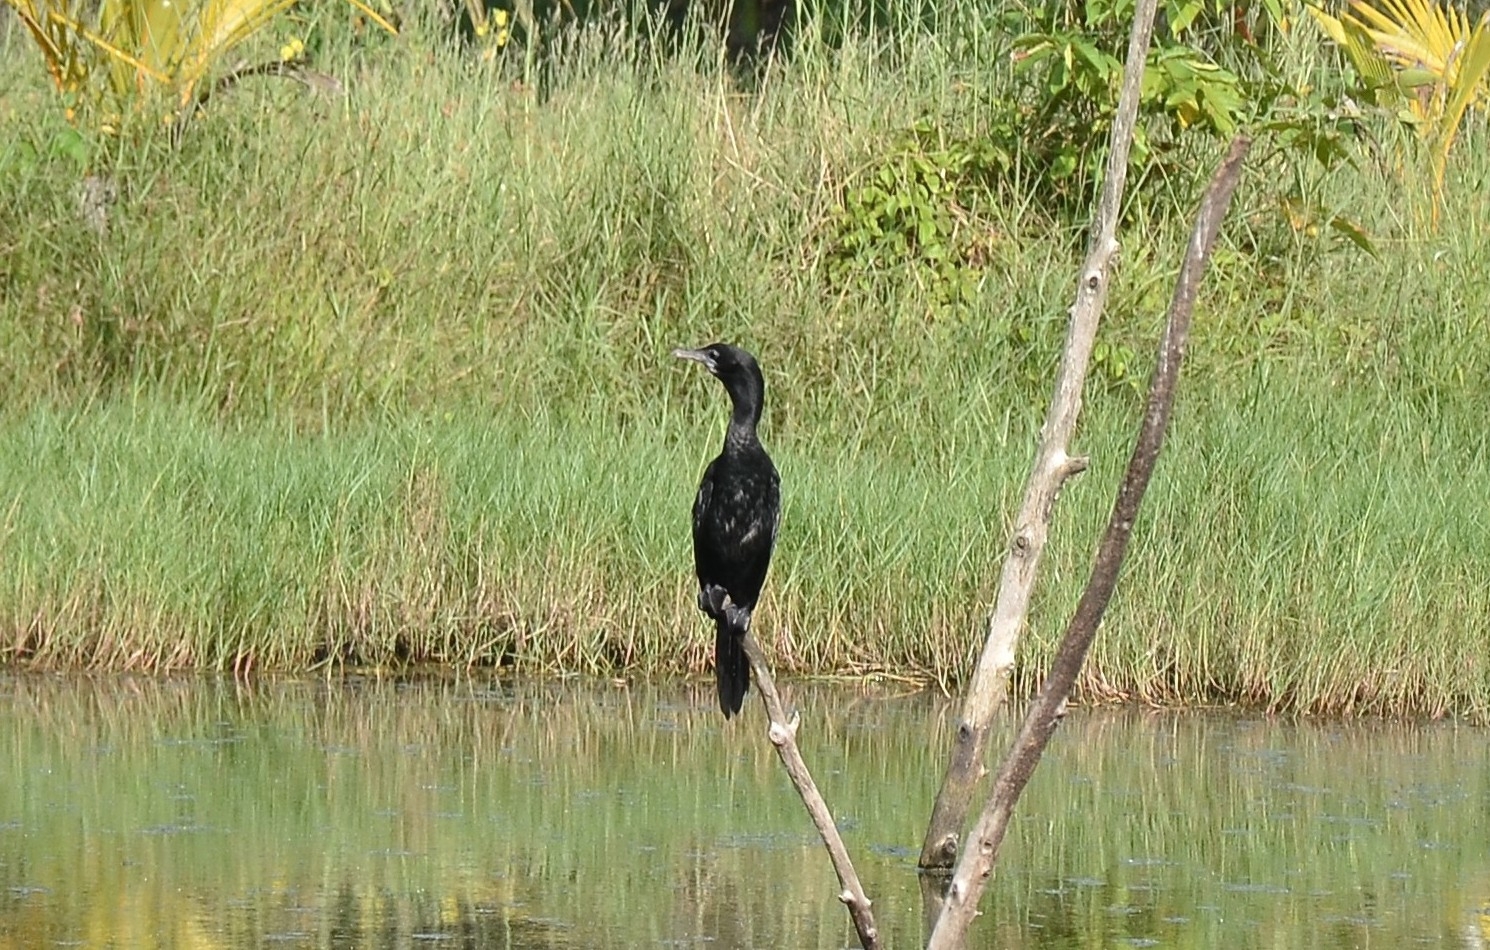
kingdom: Animalia
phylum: Chordata
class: Aves
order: Suliformes
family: Phalacrocoracidae
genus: Microcarbo
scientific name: Microcarbo niger
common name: Little cormorant
